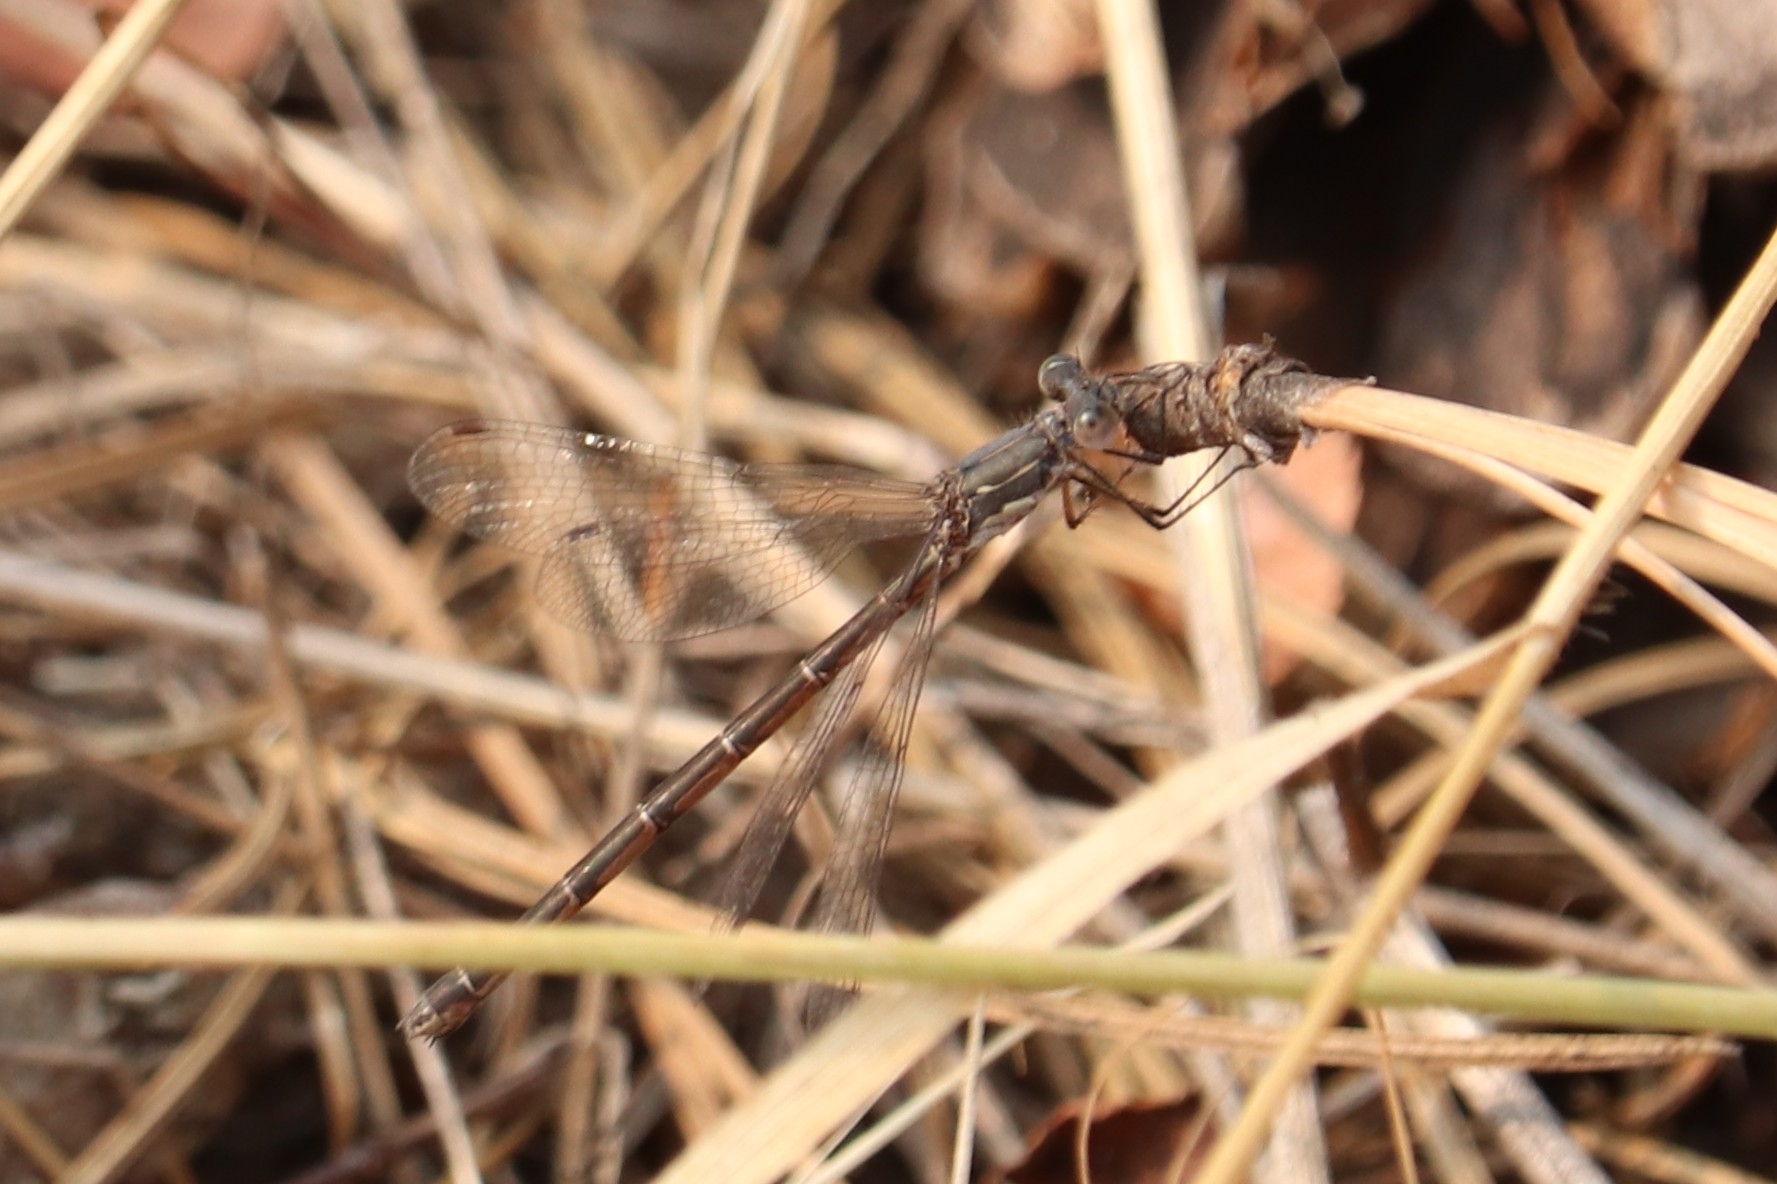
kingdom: Animalia
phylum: Arthropoda
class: Insecta
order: Odonata
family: Lestidae
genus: Lestes
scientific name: Lestes congener
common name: Spotted spreadwing
